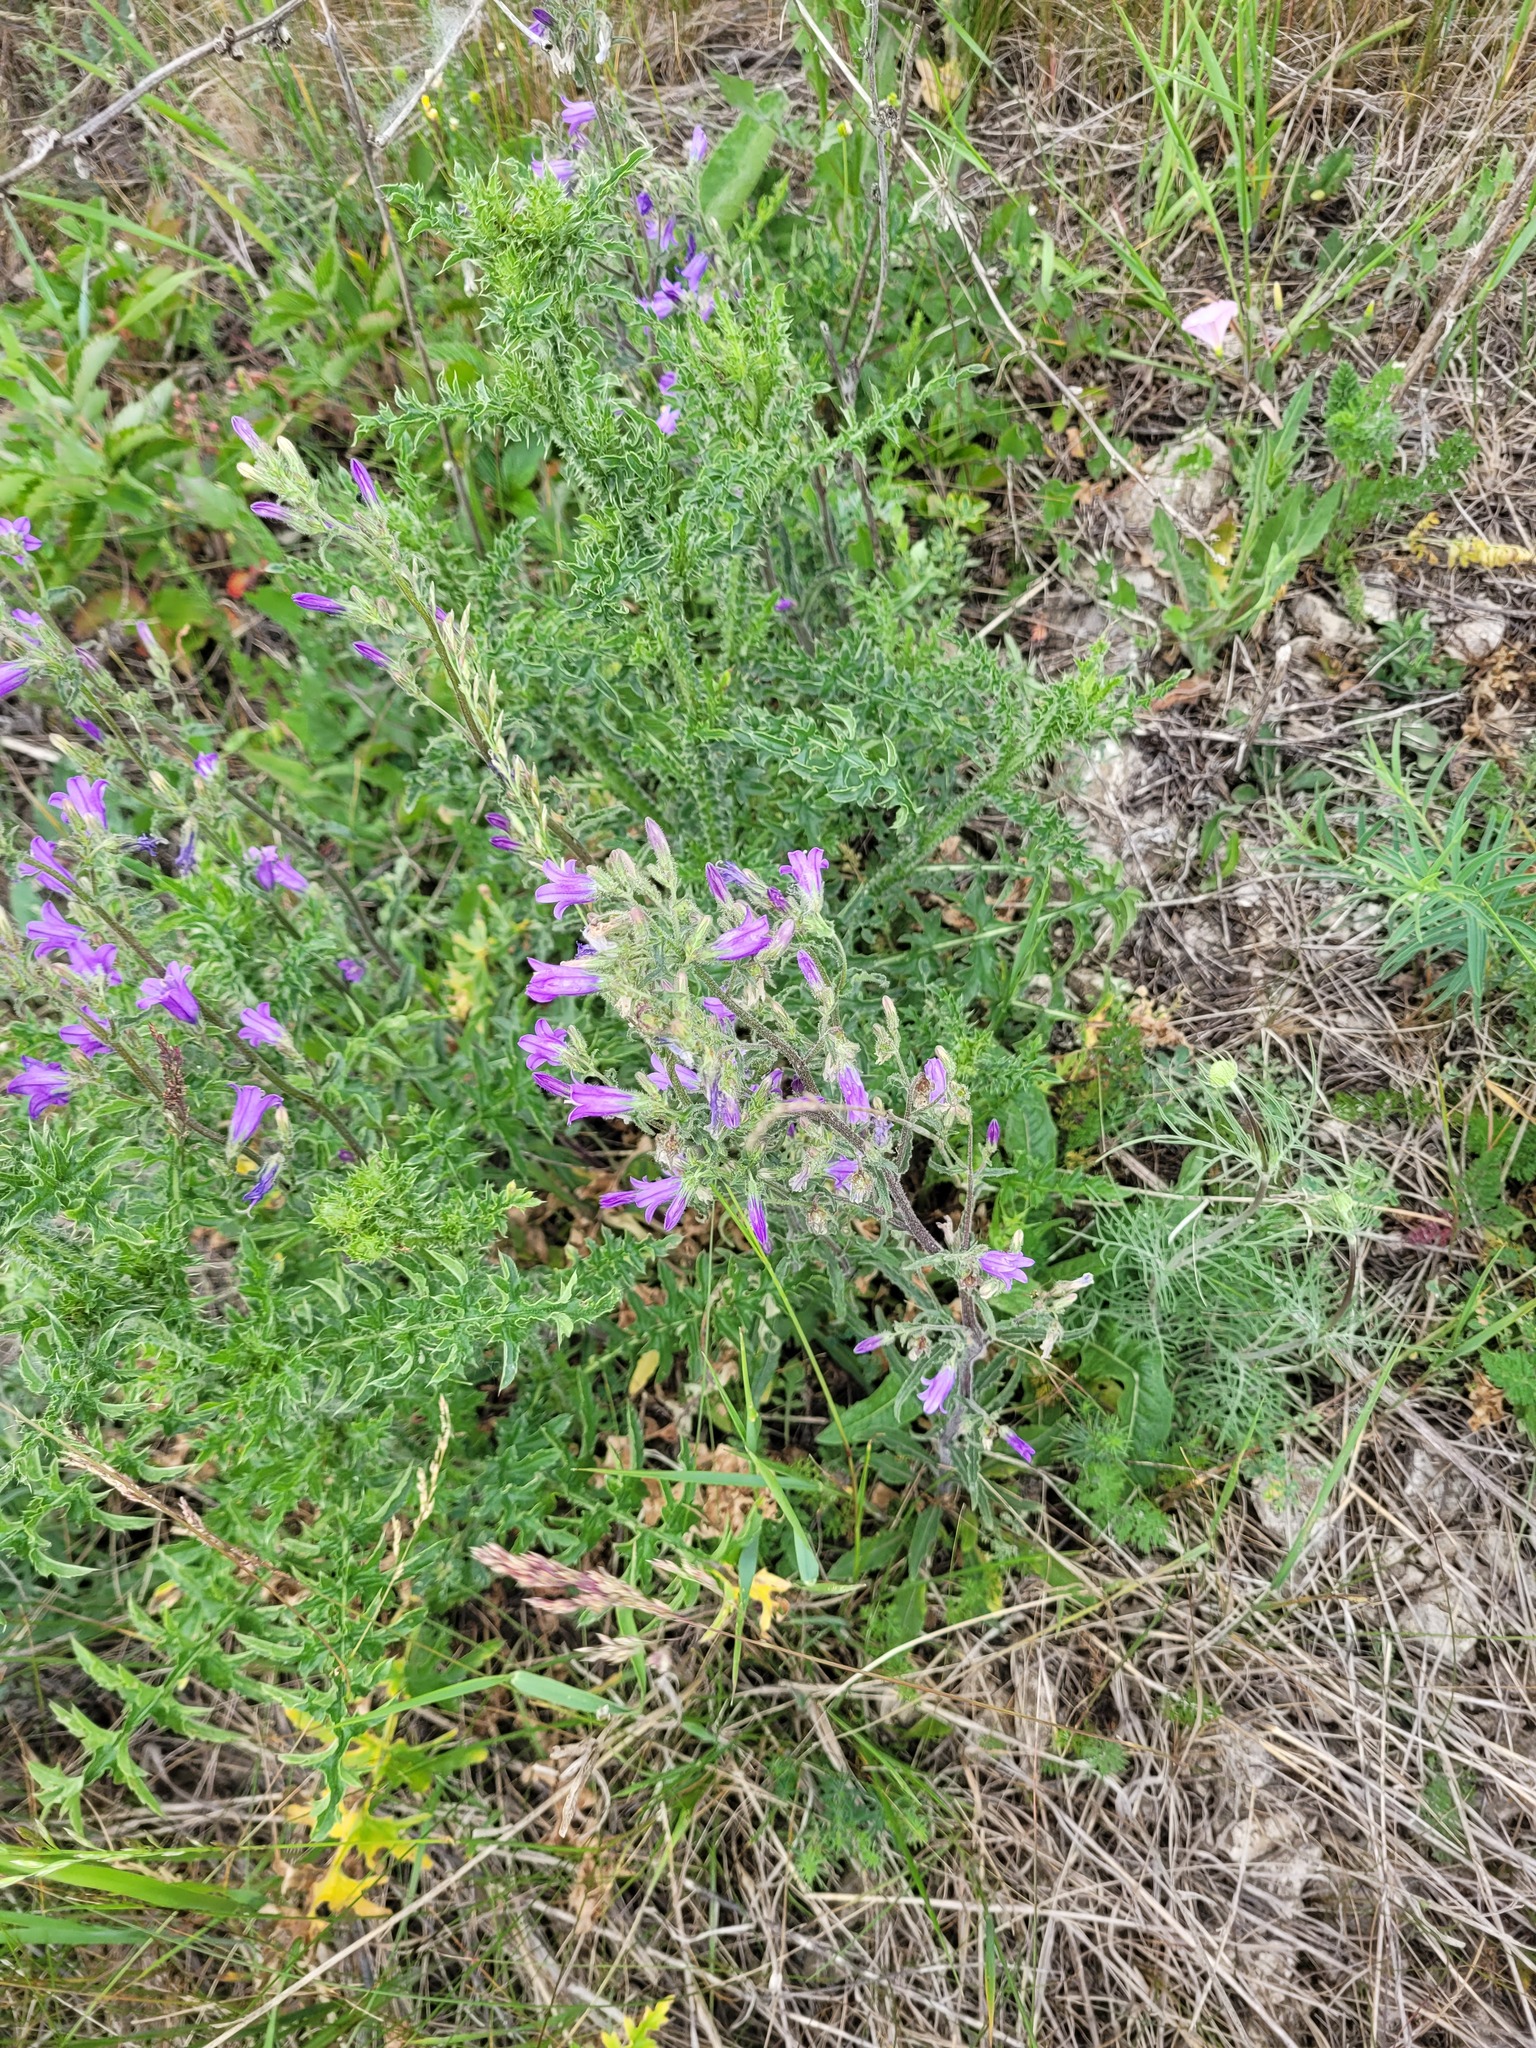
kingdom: Plantae
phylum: Tracheophyta
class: Magnoliopsida
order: Asterales
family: Campanulaceae
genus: Campanula
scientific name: Campanula sibirica
